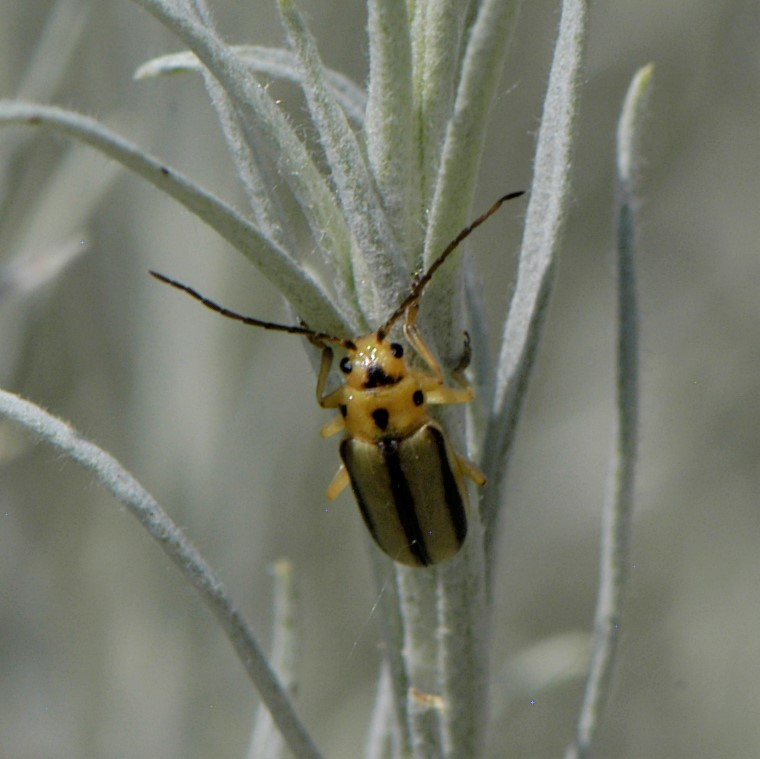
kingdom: Animalia
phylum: Arthropoda
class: Insecta
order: Coleoptera
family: Chrysomelidae
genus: Trirhabda
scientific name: Trirhabda nitidicollis
